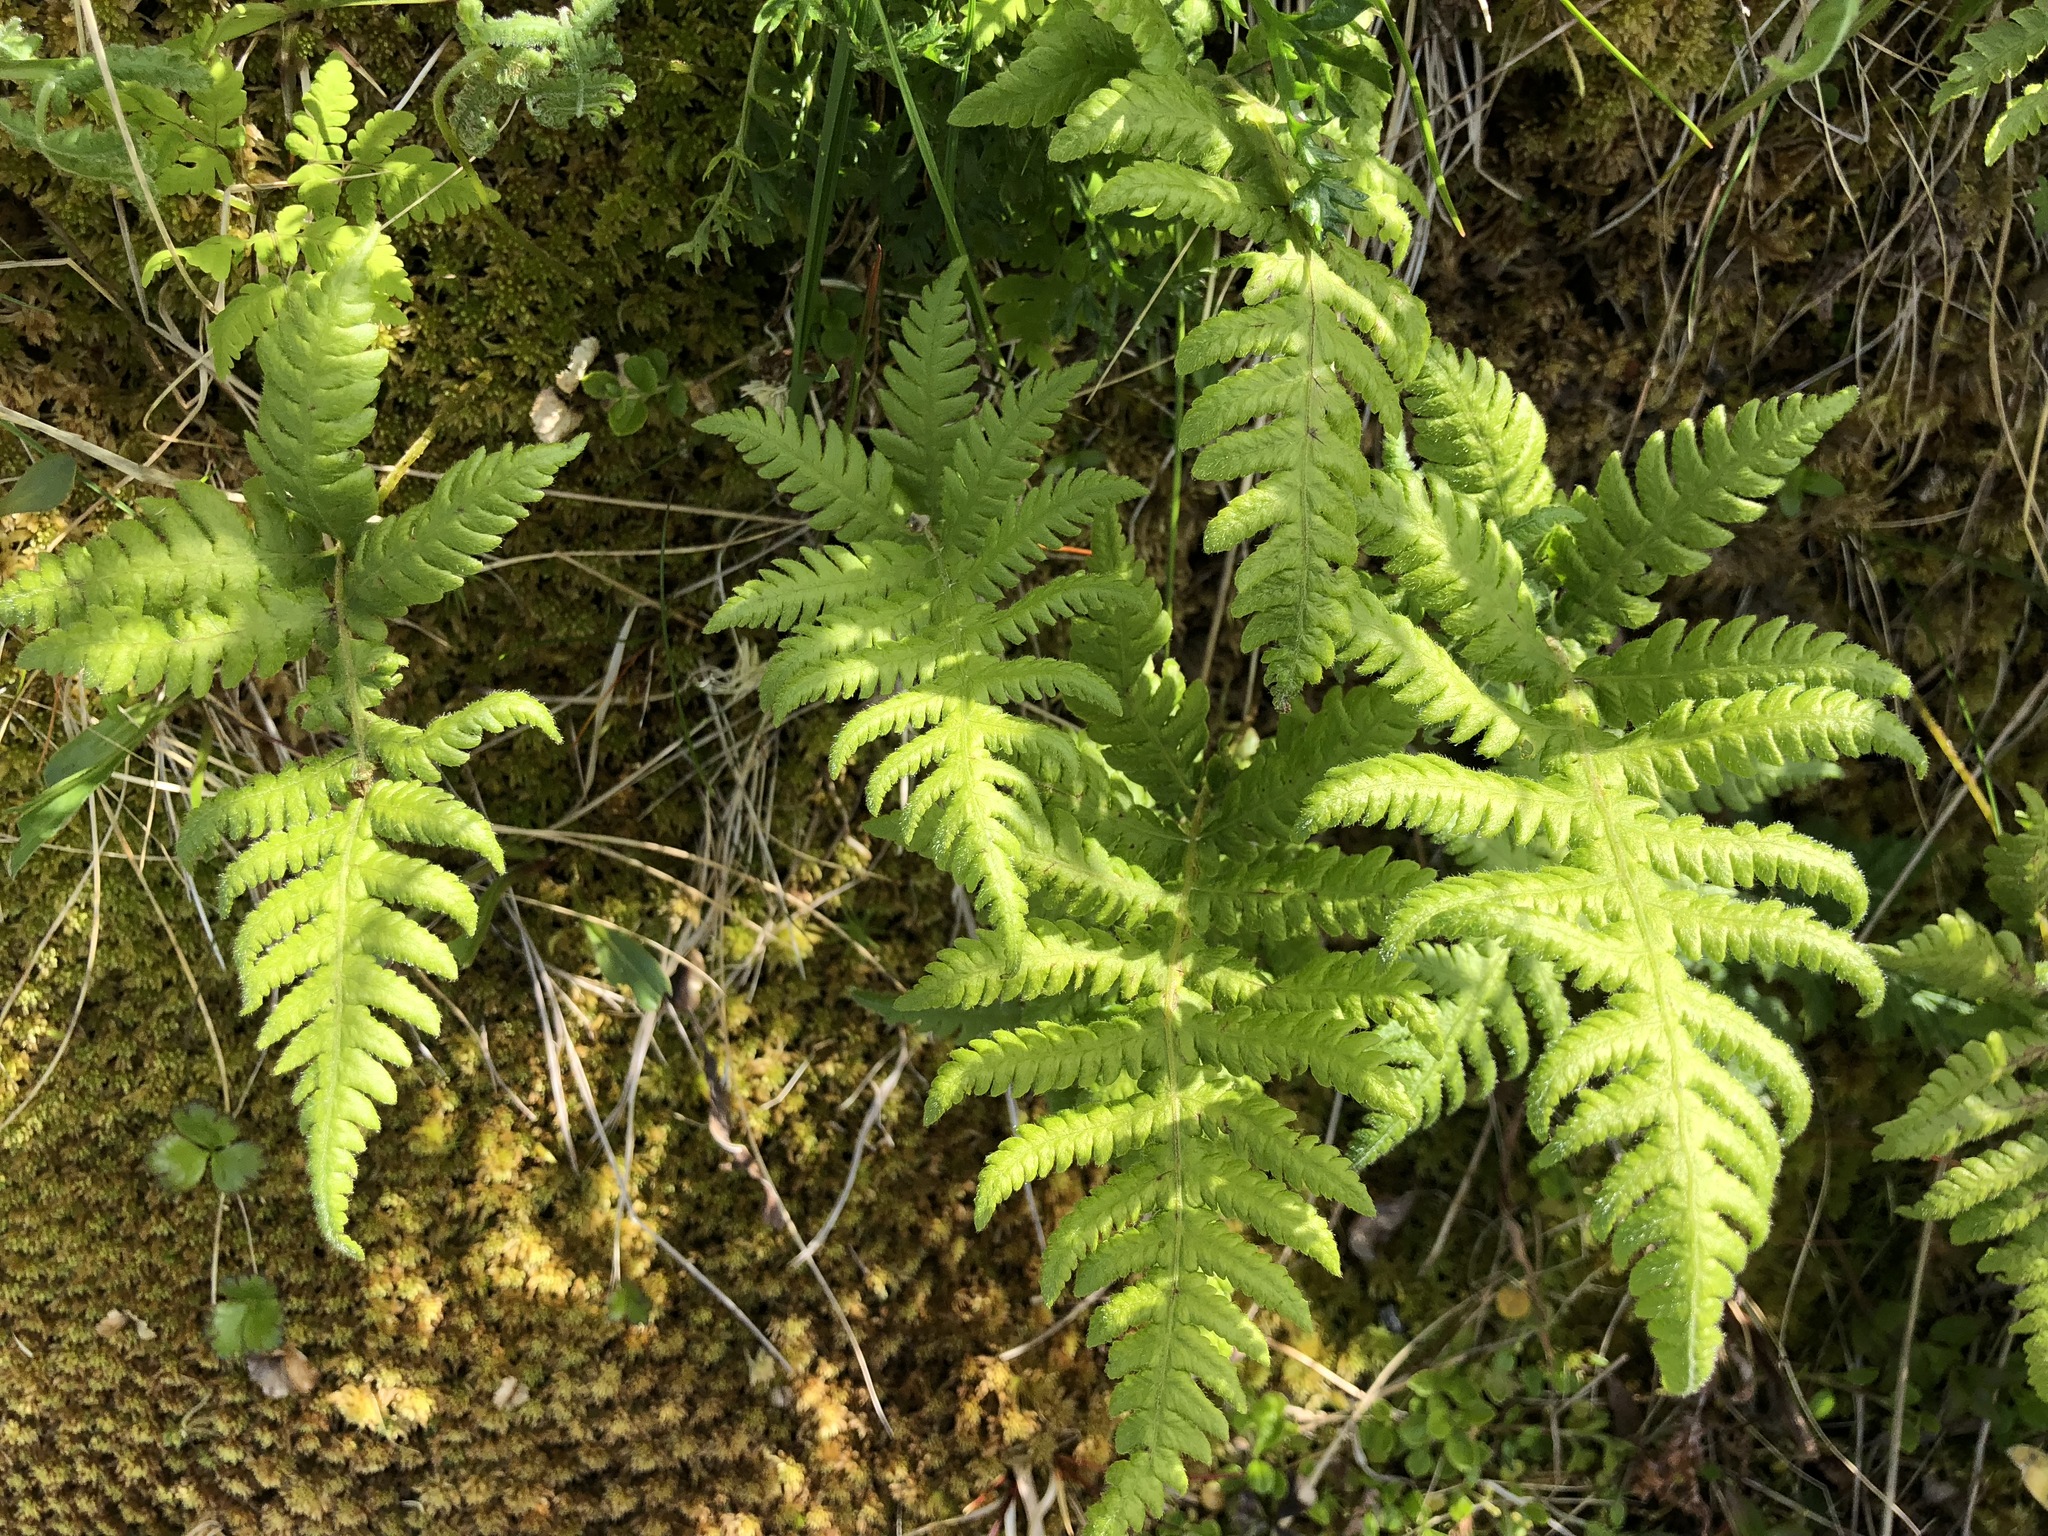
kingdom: Plantae
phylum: Tracheophyta
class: Polypodiopsida
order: Polypodiales
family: Thelypteridaceae
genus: Phegopteris
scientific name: Phegopteris connectilis
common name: Beech fern
